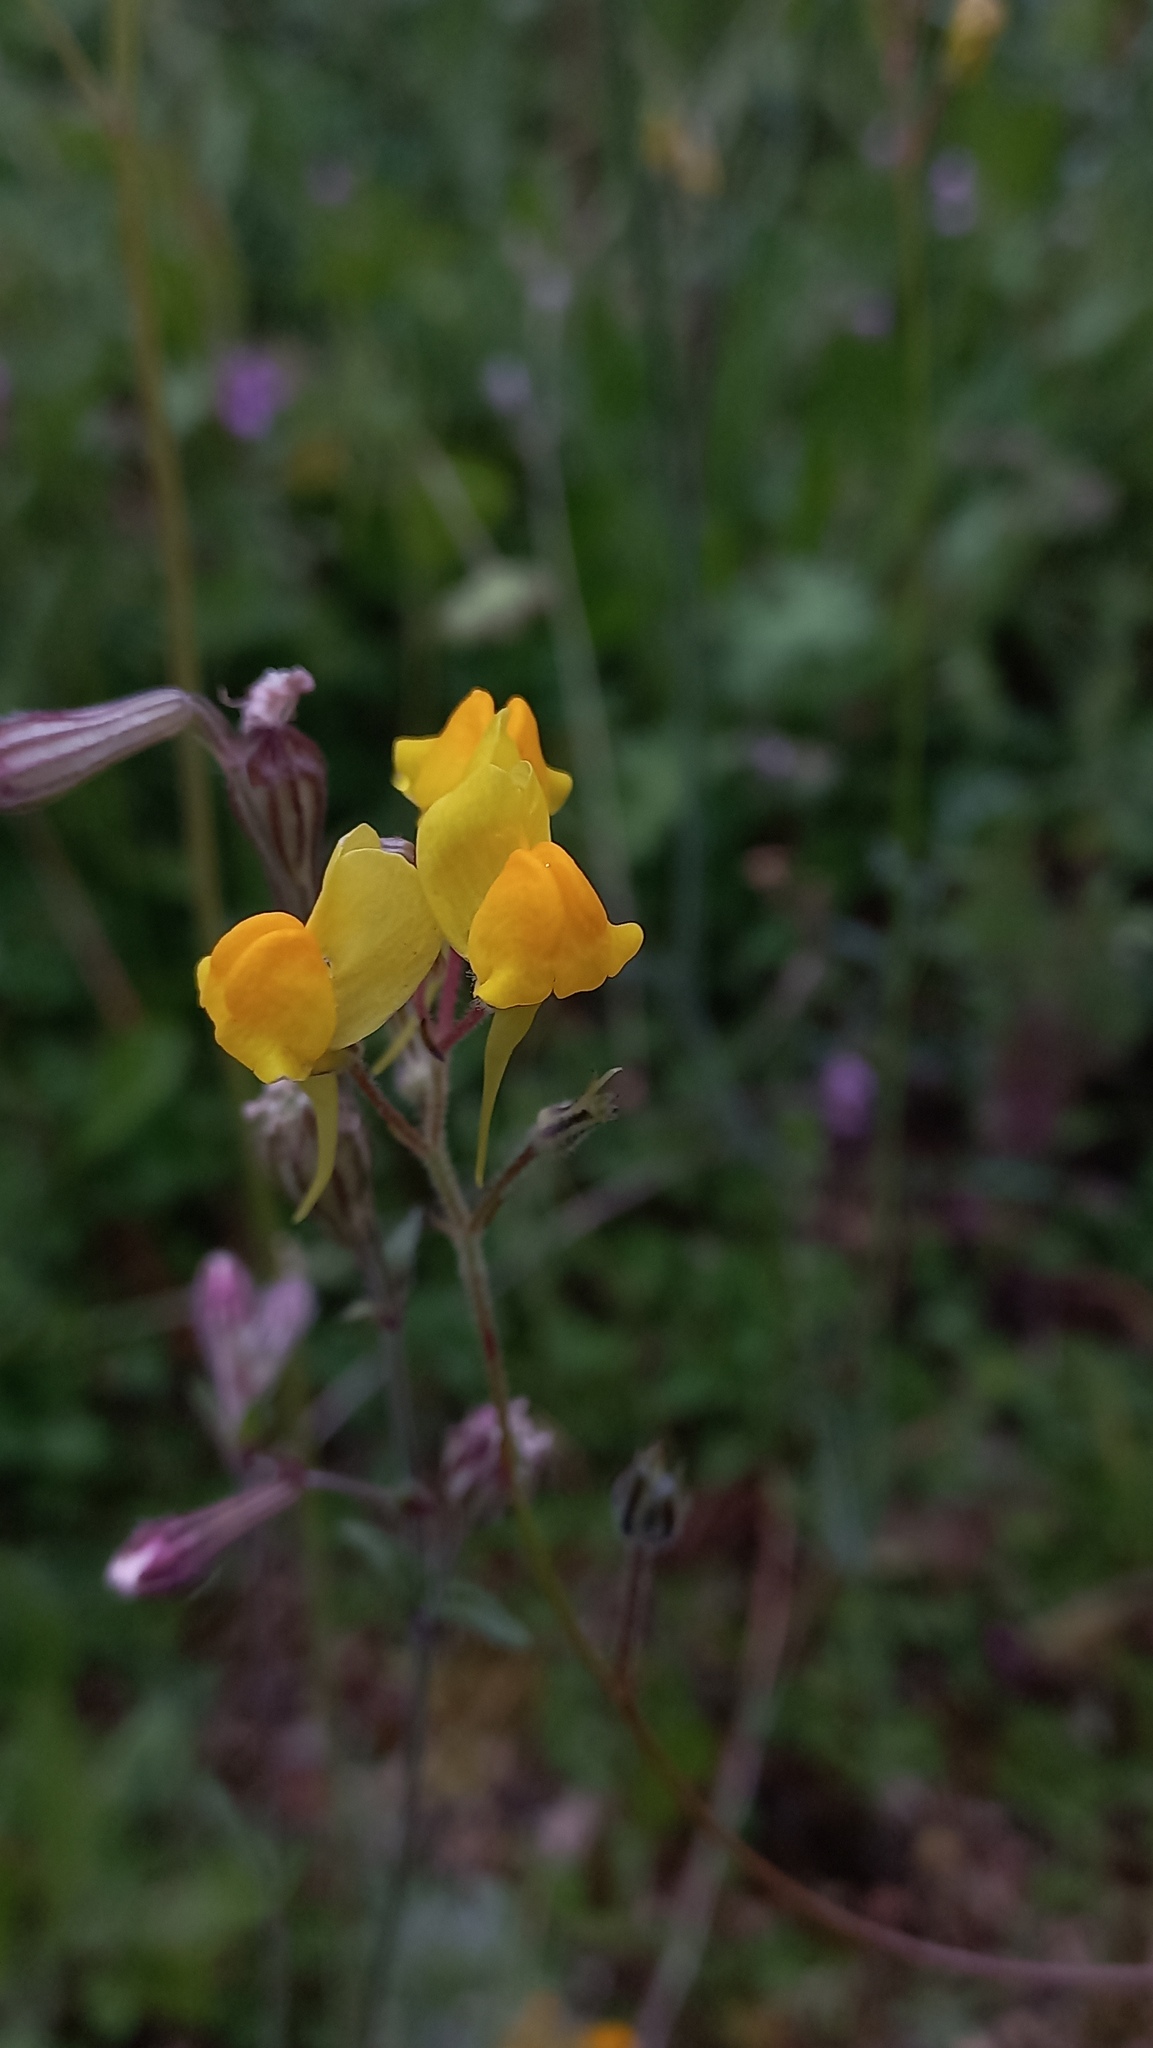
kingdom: Plantae
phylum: Tracheophyta
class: Magnoliopsida
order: Lamiales
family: Plantaginaceae
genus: Linaria
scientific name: Linaria spartea
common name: Ballast toadflax
